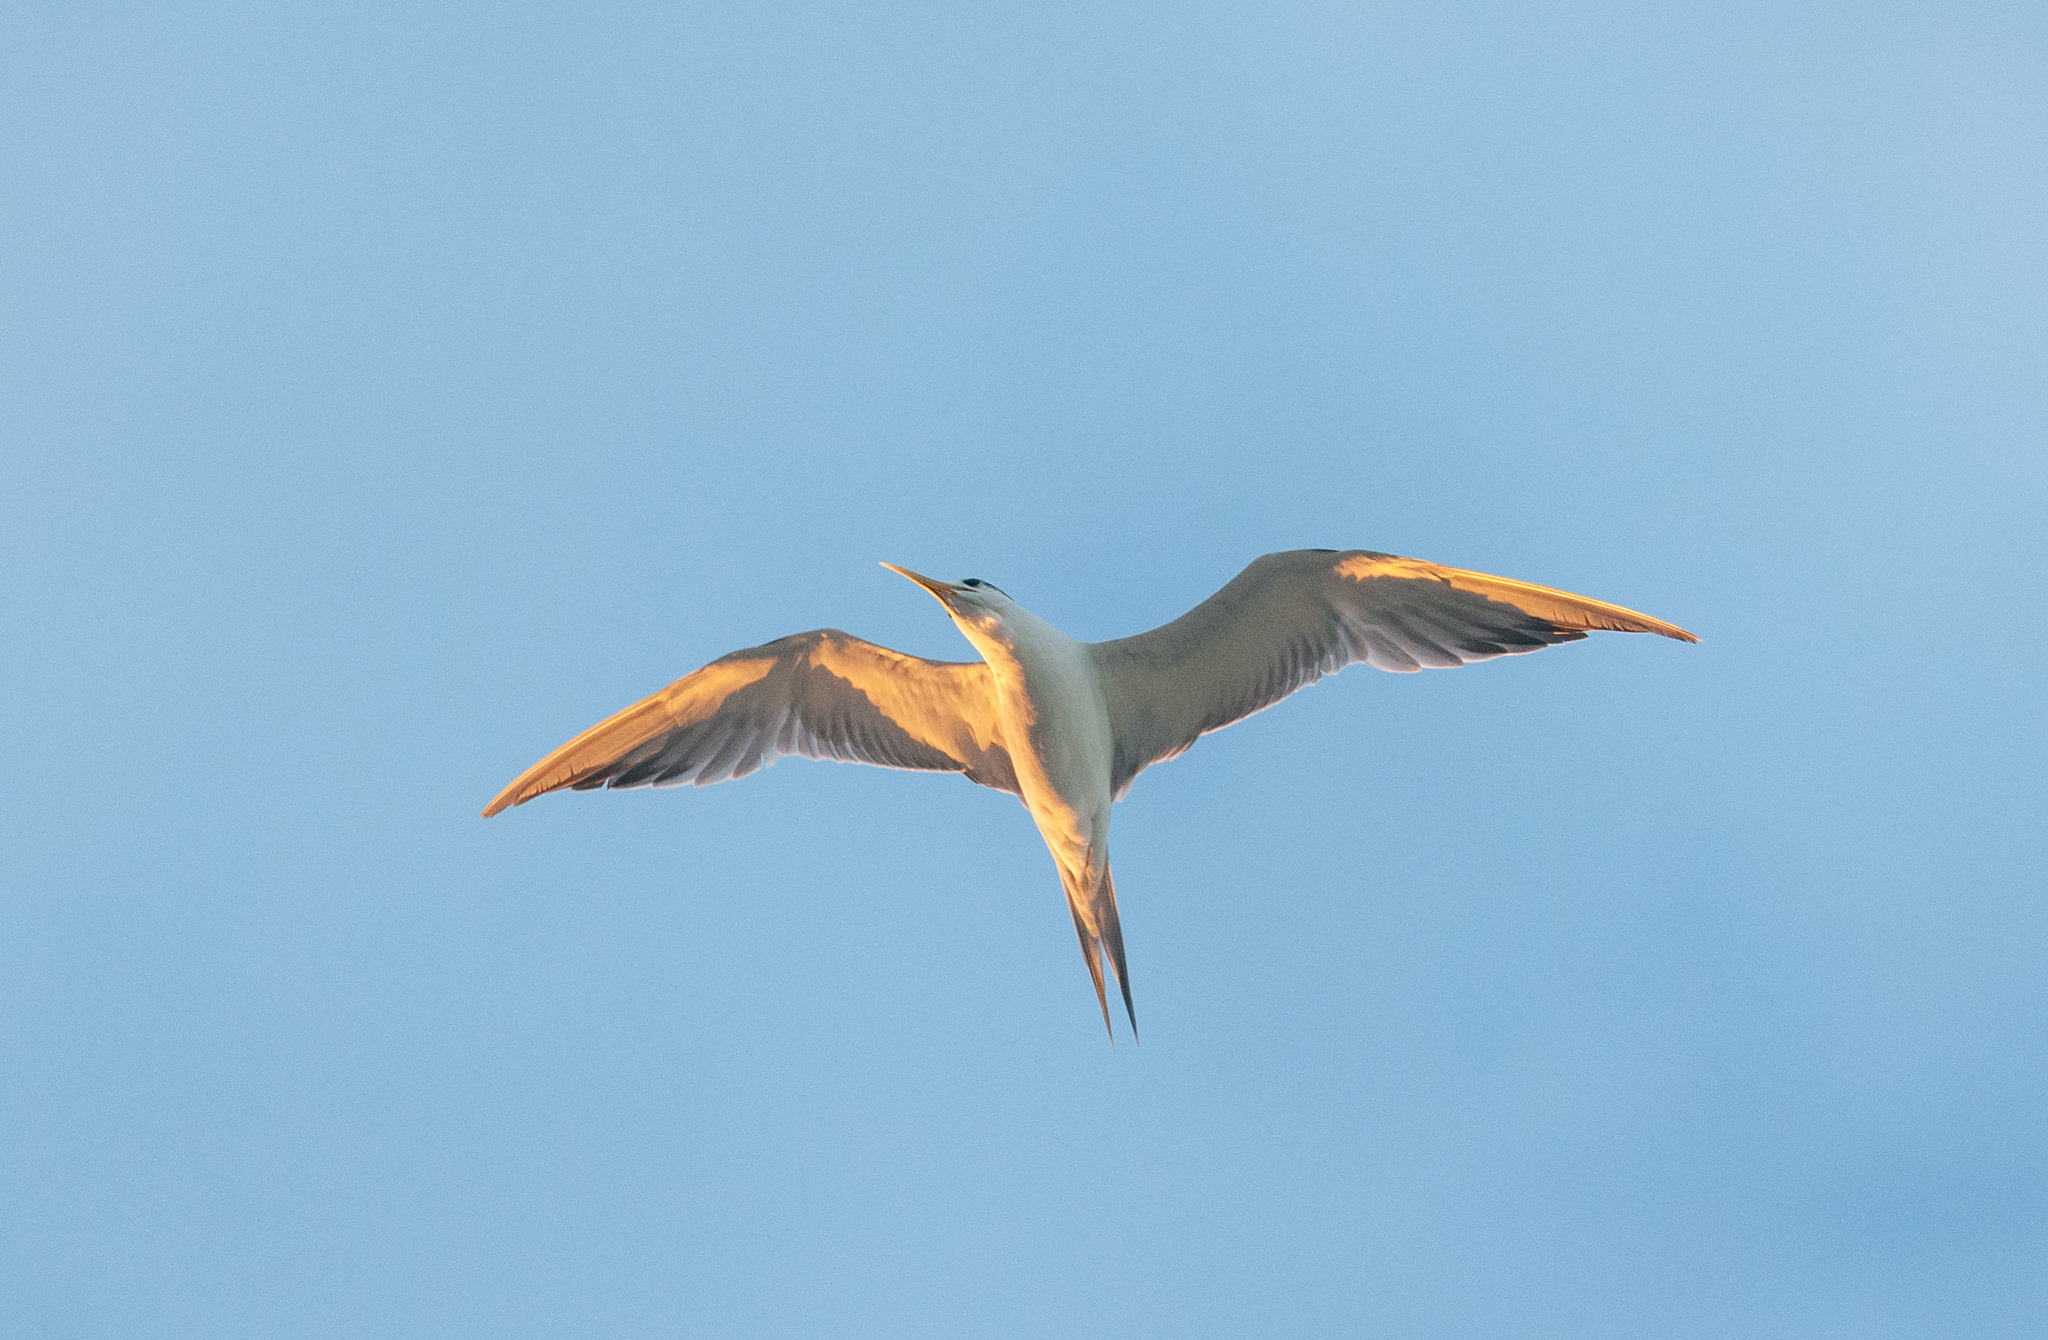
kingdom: Animalia
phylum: Chordata
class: Aves
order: Charadriiformes
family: Laridae
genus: Thalasseus
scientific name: Thalasseus bergii
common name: Greater crested tern
